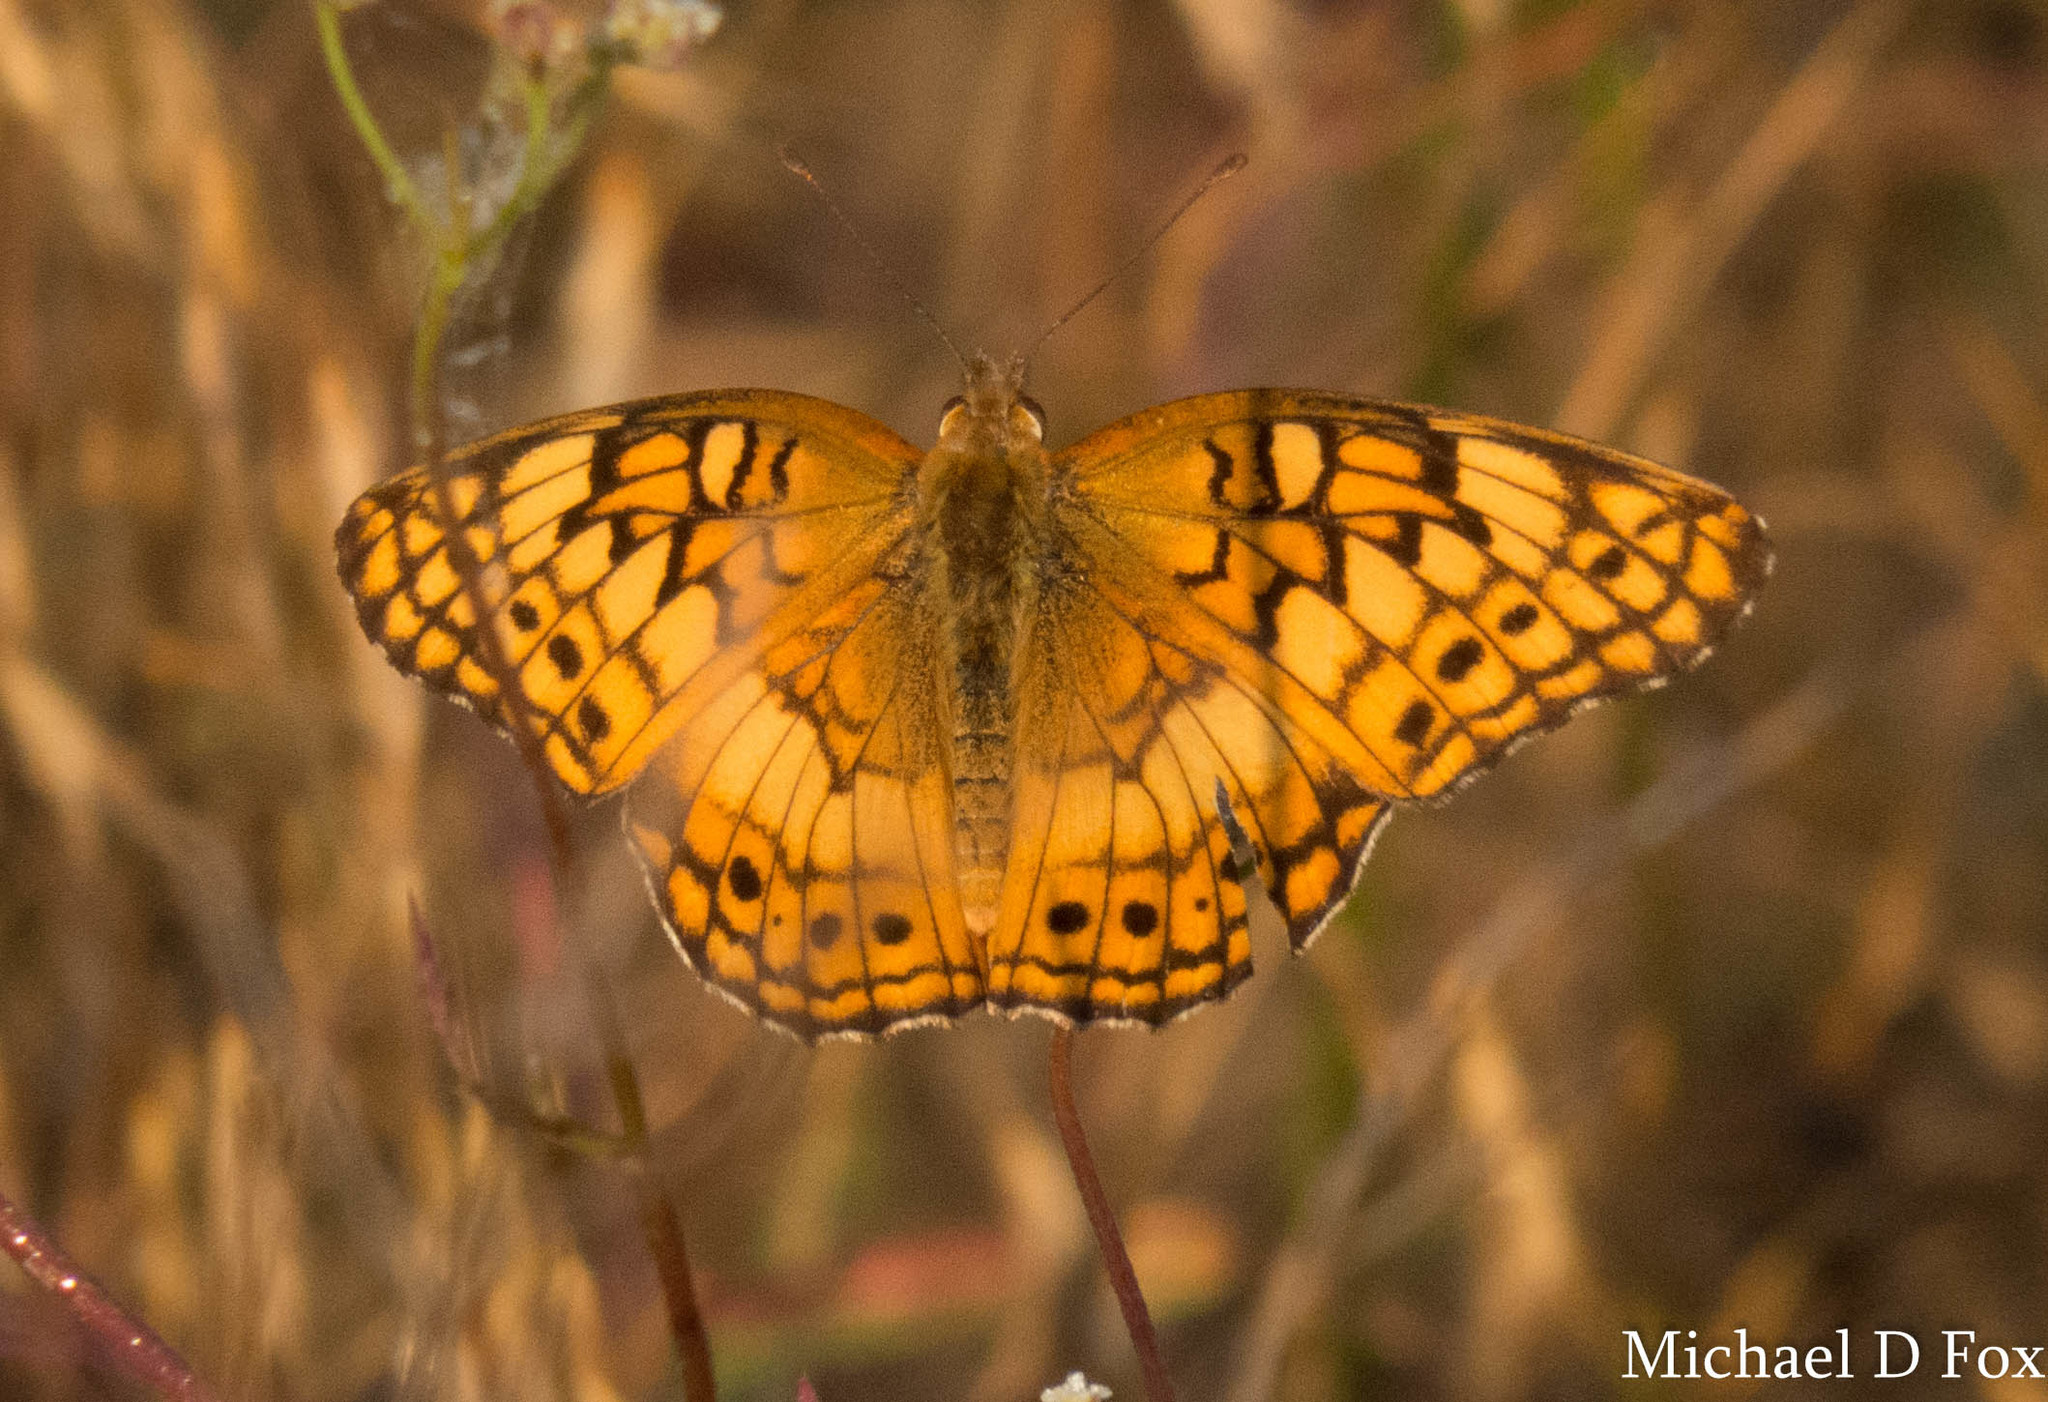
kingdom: Animalia
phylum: Arthropoda
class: Insecta
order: Lepidoptera
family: Nymphalidae
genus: Euptoieta
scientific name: Euptoieta claudia
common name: Variegated fritillary
